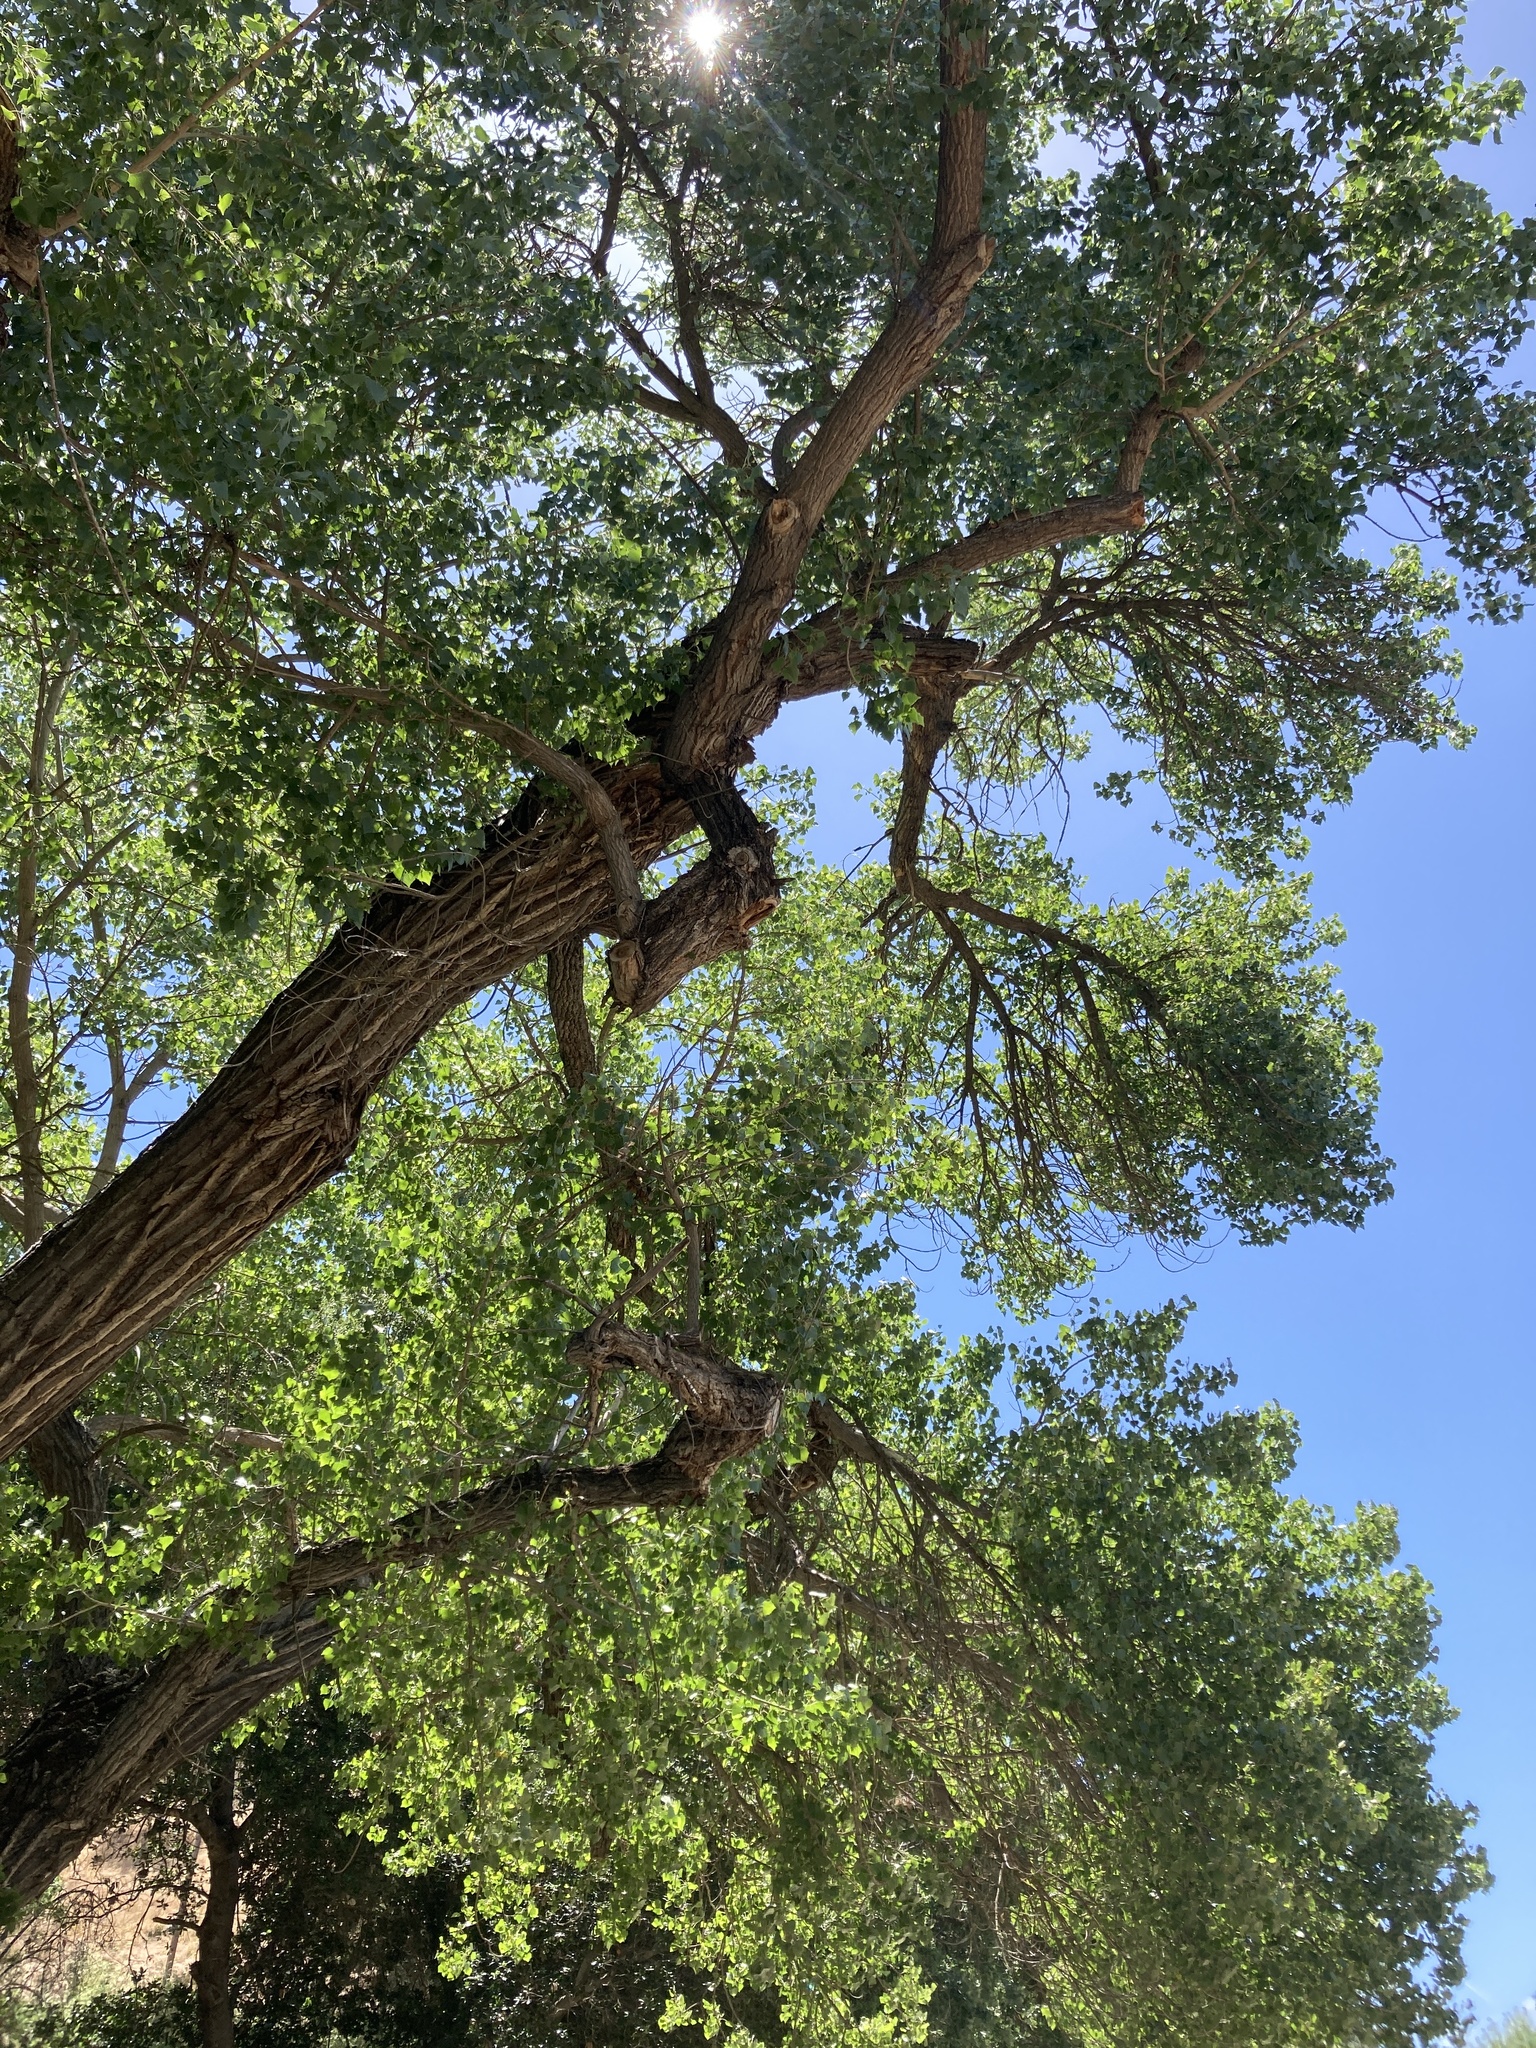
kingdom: Plantae
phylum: Tracheophyta
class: Magnoliopsida
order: Malpighiales
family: Salicaceae
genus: Populus
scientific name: Populus fremontii
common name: Fremont's cottonwood
